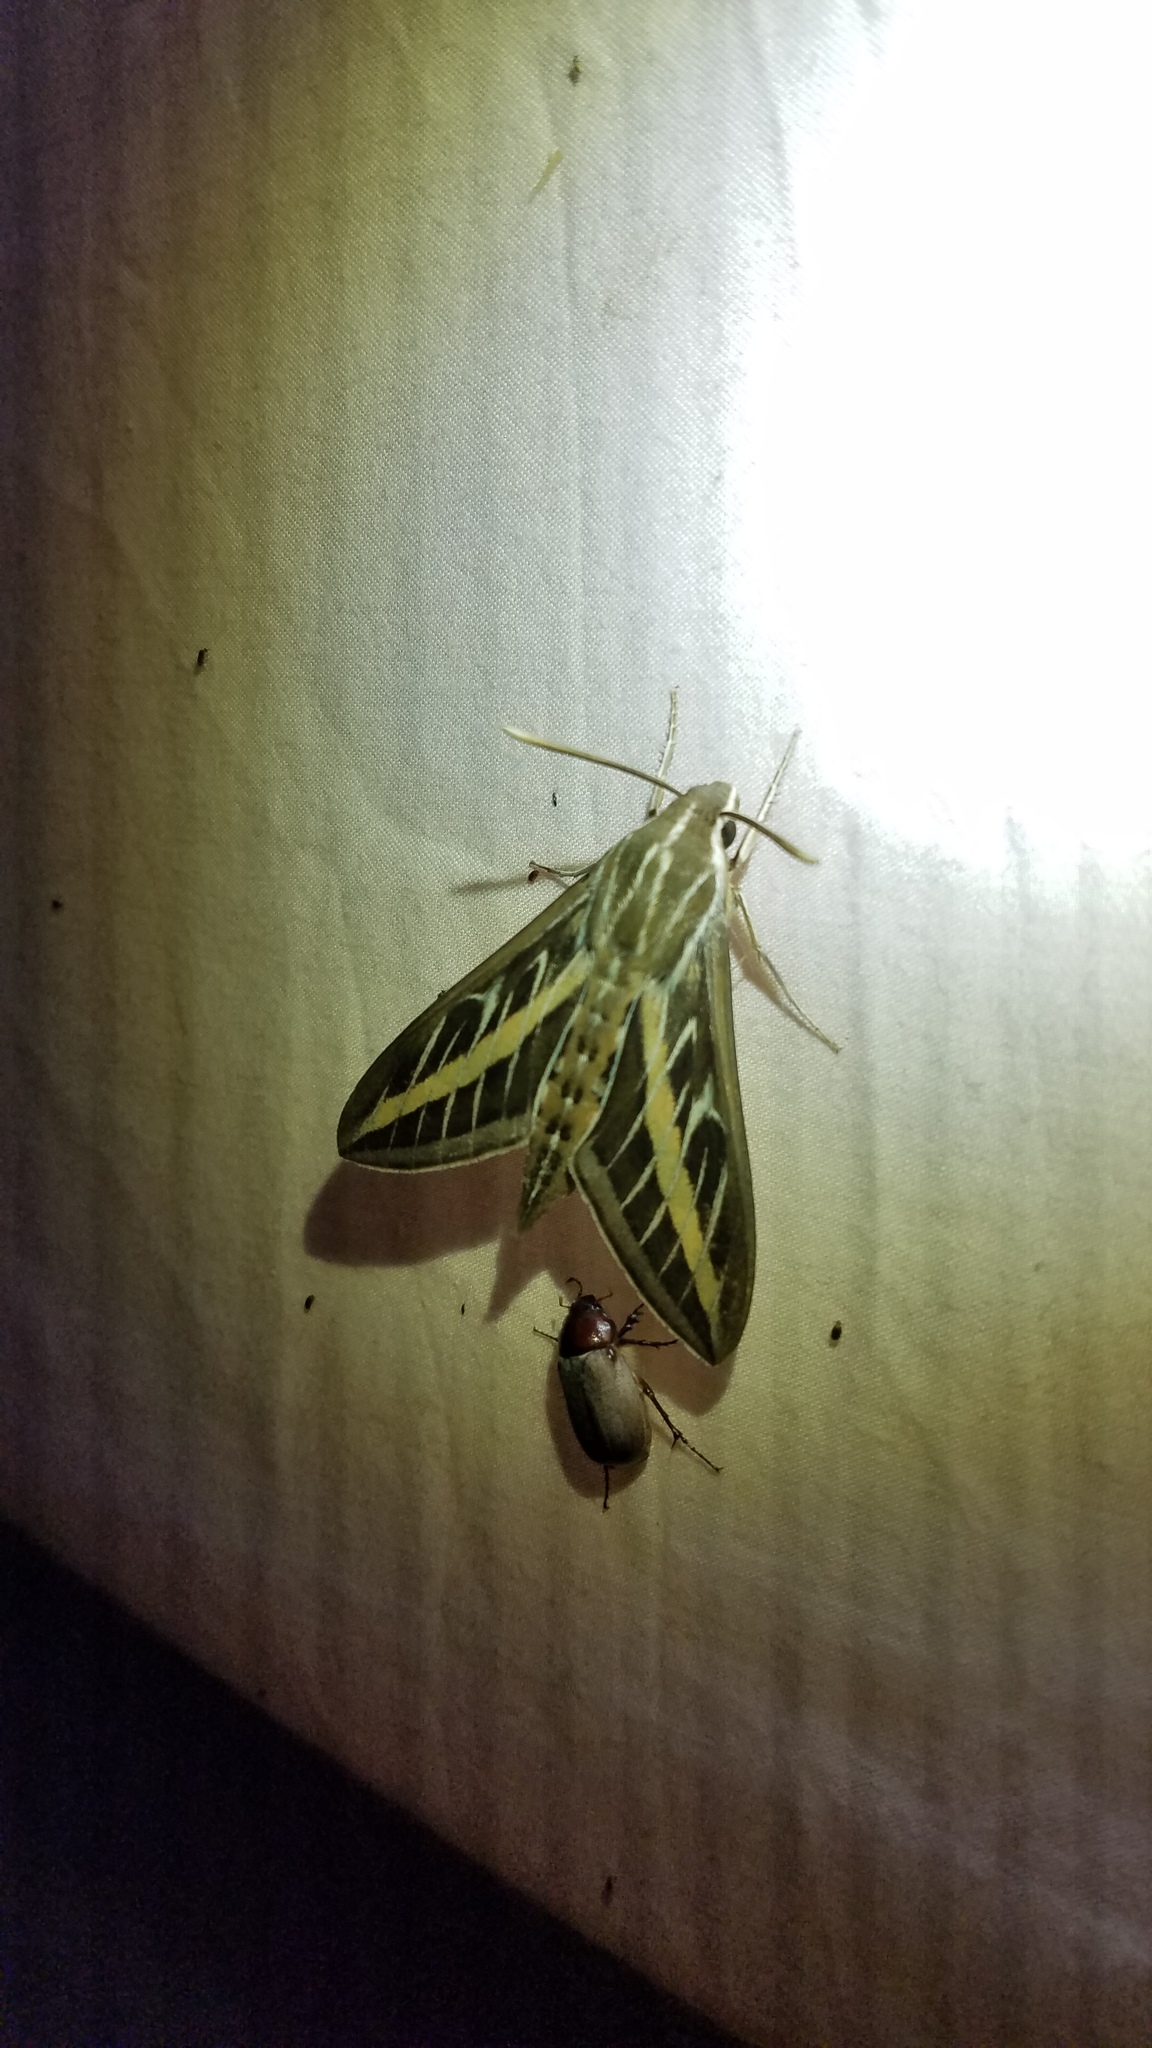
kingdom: Animalia
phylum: Arthropoda
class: Insecta
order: Lepidoptera
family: Sphingidae
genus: Hyles
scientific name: Hyles lineata
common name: White-lined sphinx
